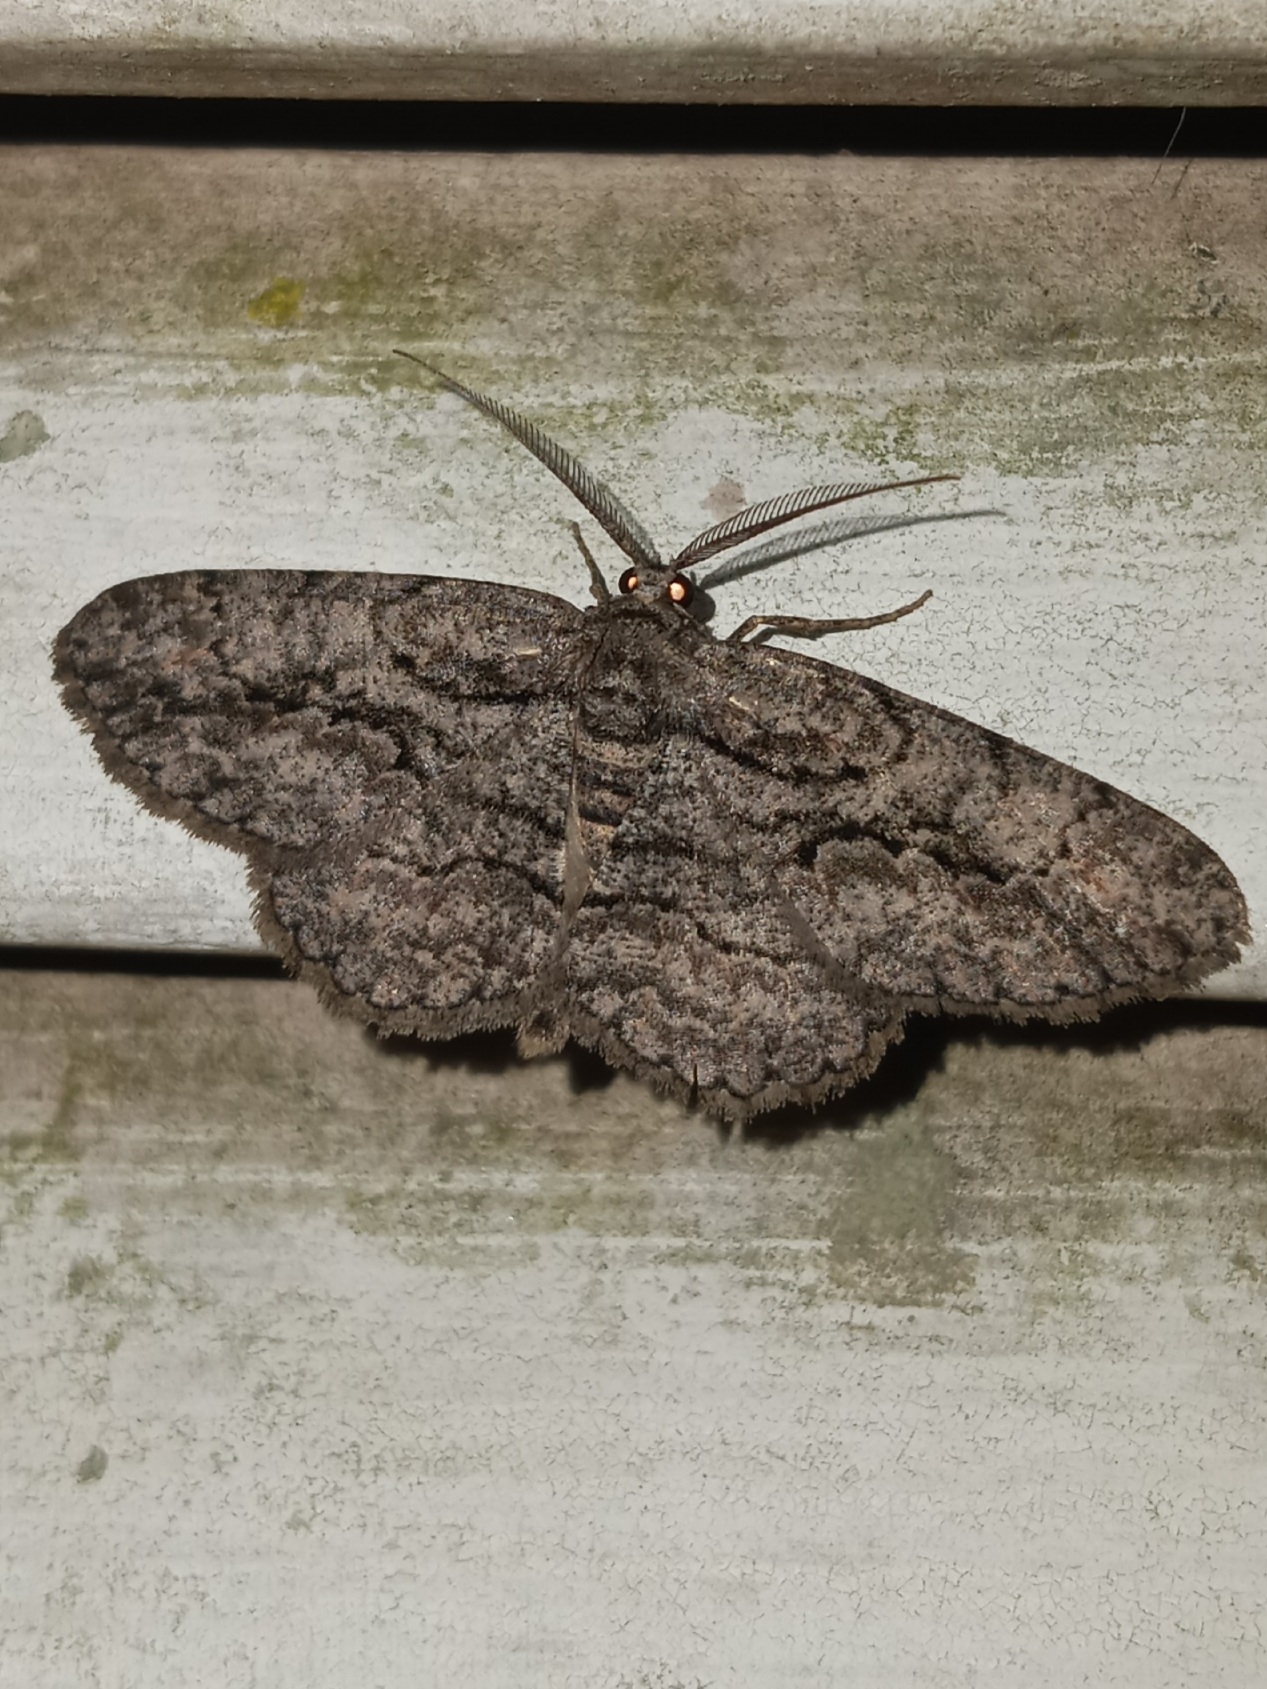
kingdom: Animalia
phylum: Arthropoda
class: Insecta
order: Lepidoptera
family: Geometridae
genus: Anavitrinella
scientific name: Anavitrinella pampinaria
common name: Common gray
